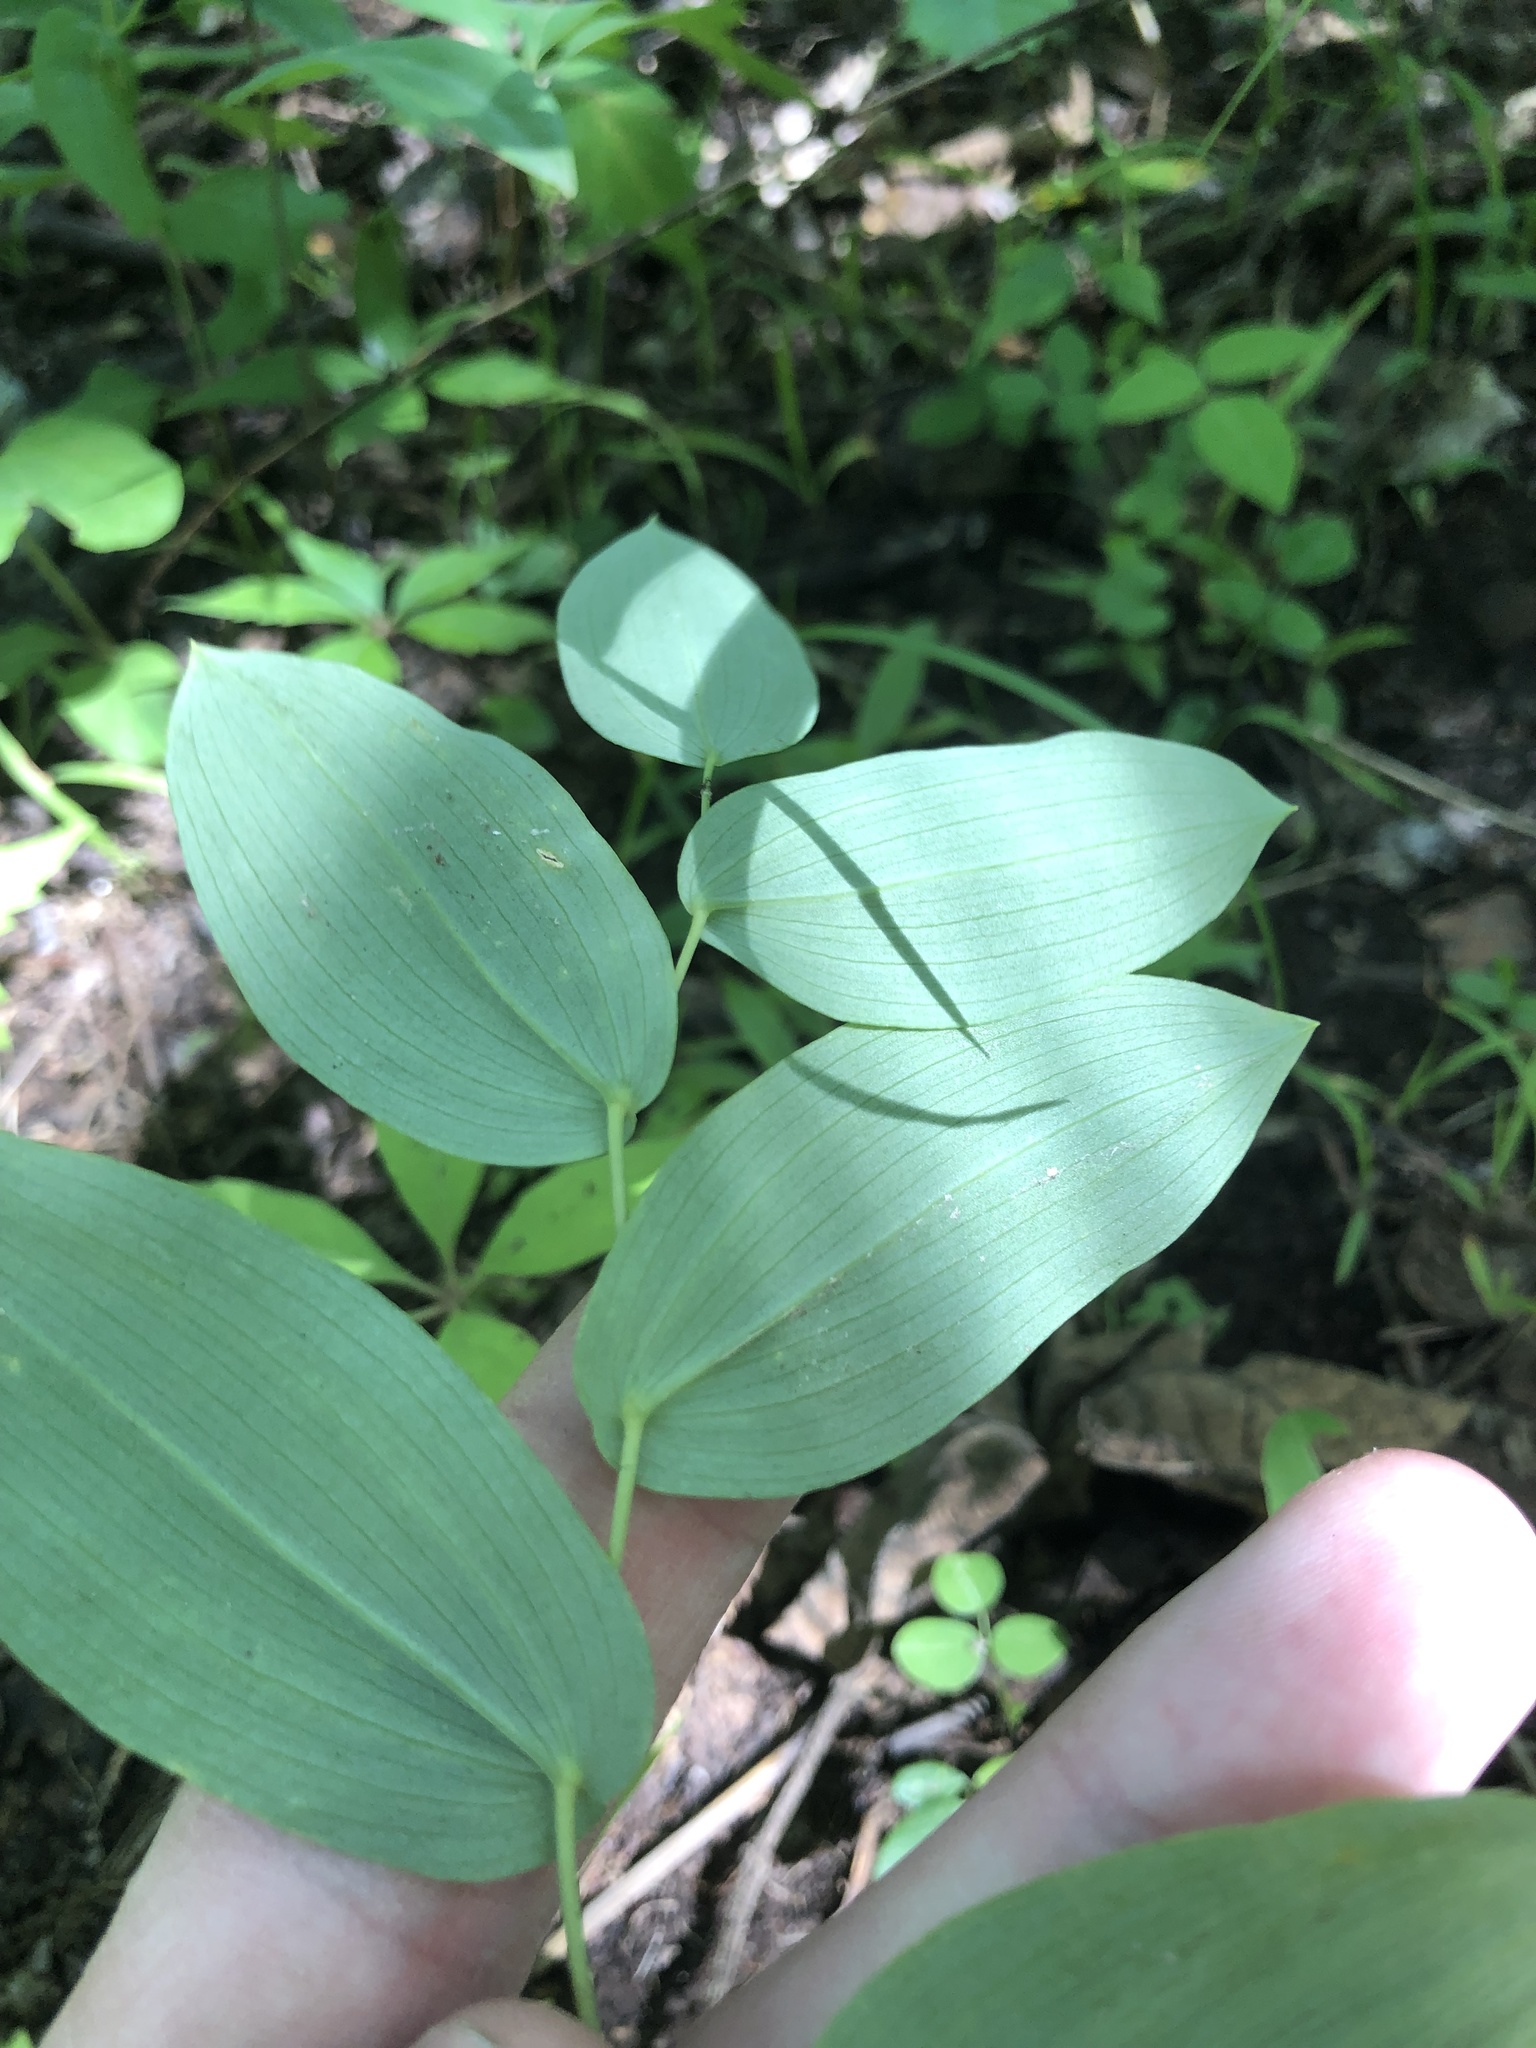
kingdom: Plantae
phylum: Tracheophyta
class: Liliopsida
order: Liliales
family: Colchicaceae
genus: Uvularia
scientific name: Uvularia perfoliata
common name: Perfoliate bellwort
